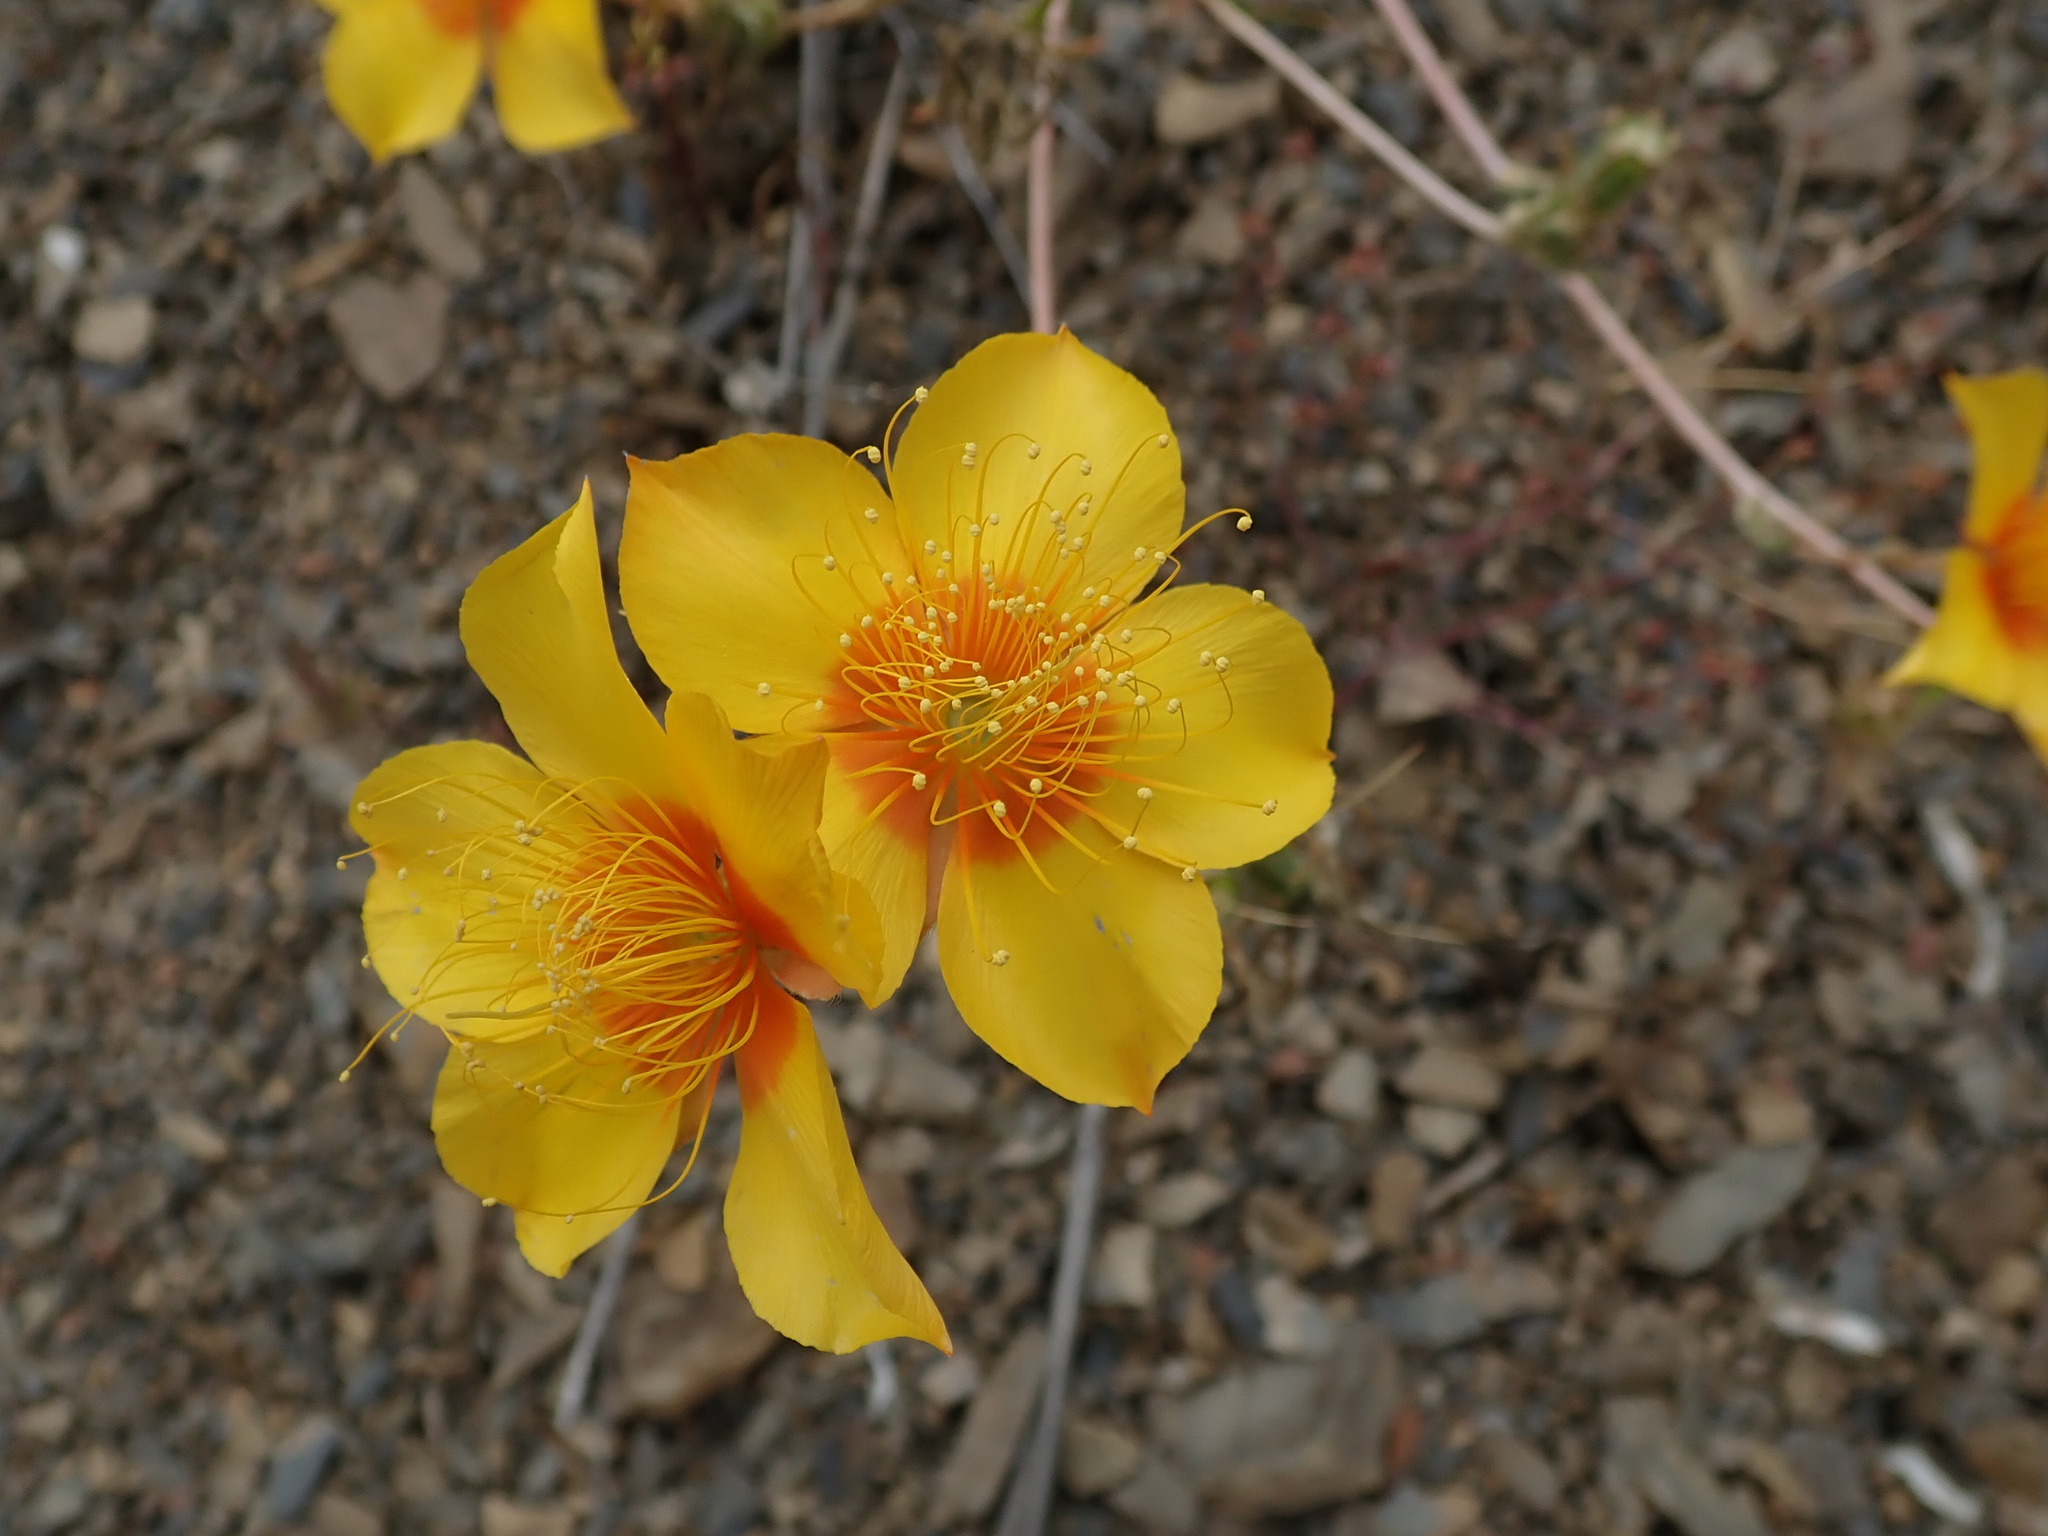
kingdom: Plantae
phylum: Tracheophyta
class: Magnoliopsida
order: Cornales
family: Loasaceae
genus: Mentzelia
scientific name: Mentzelia lindleyi
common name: Golden bartonia
